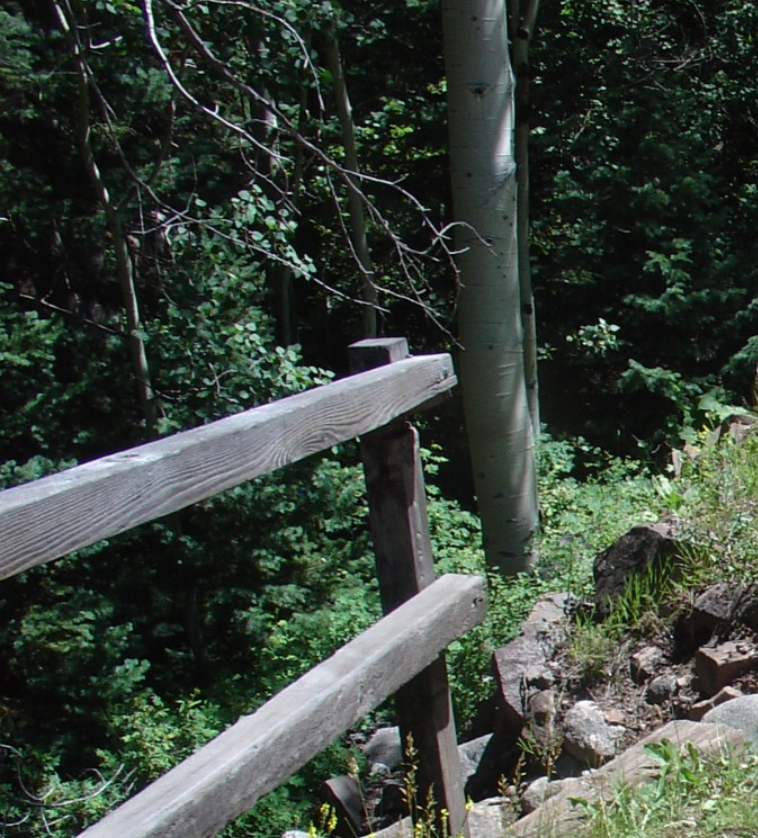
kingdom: Plantae
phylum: Tracheophyta
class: Magnoliopsida
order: Malpighiales
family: Salicaceae
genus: Populus
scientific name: Populus tremuloides
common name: Quaking aspen
